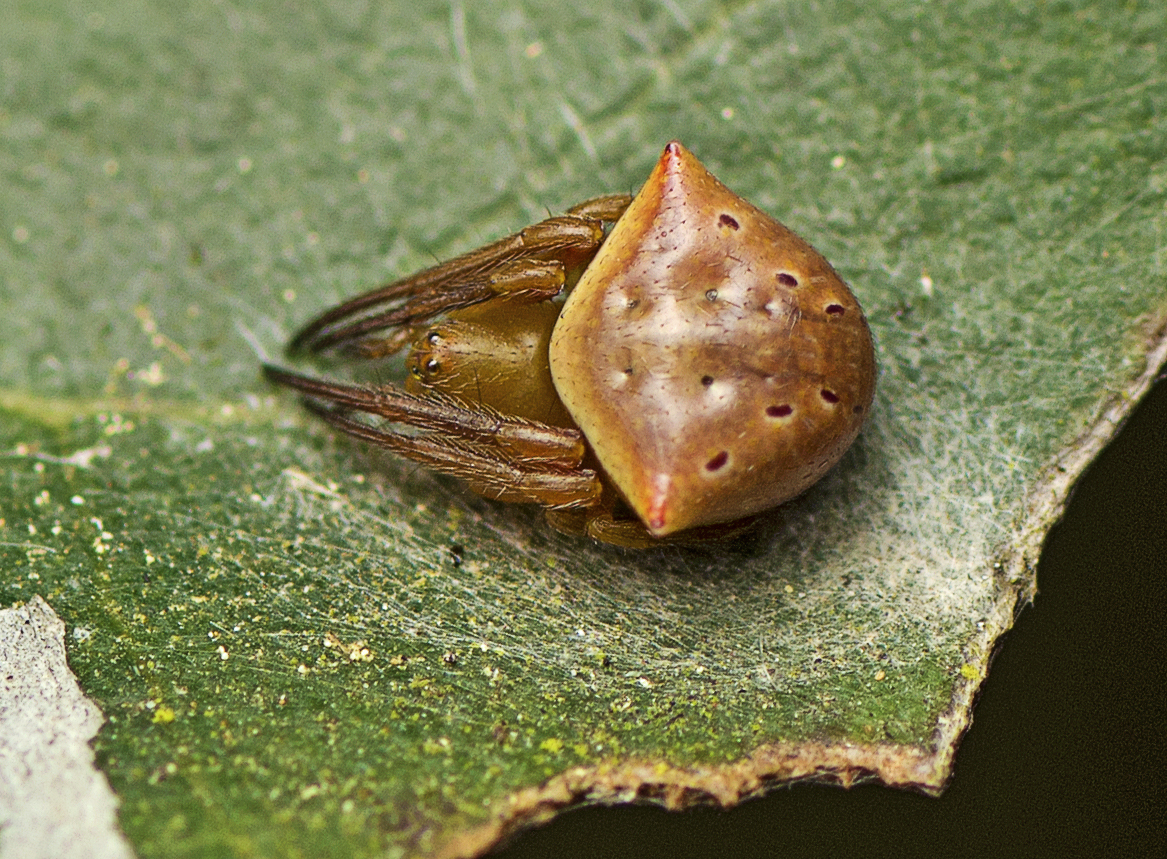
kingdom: Animalia
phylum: Arthropoda
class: Arachnida
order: Araneae
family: Araneidae
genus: Araneus
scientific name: Araneus cyrtarachnoides
